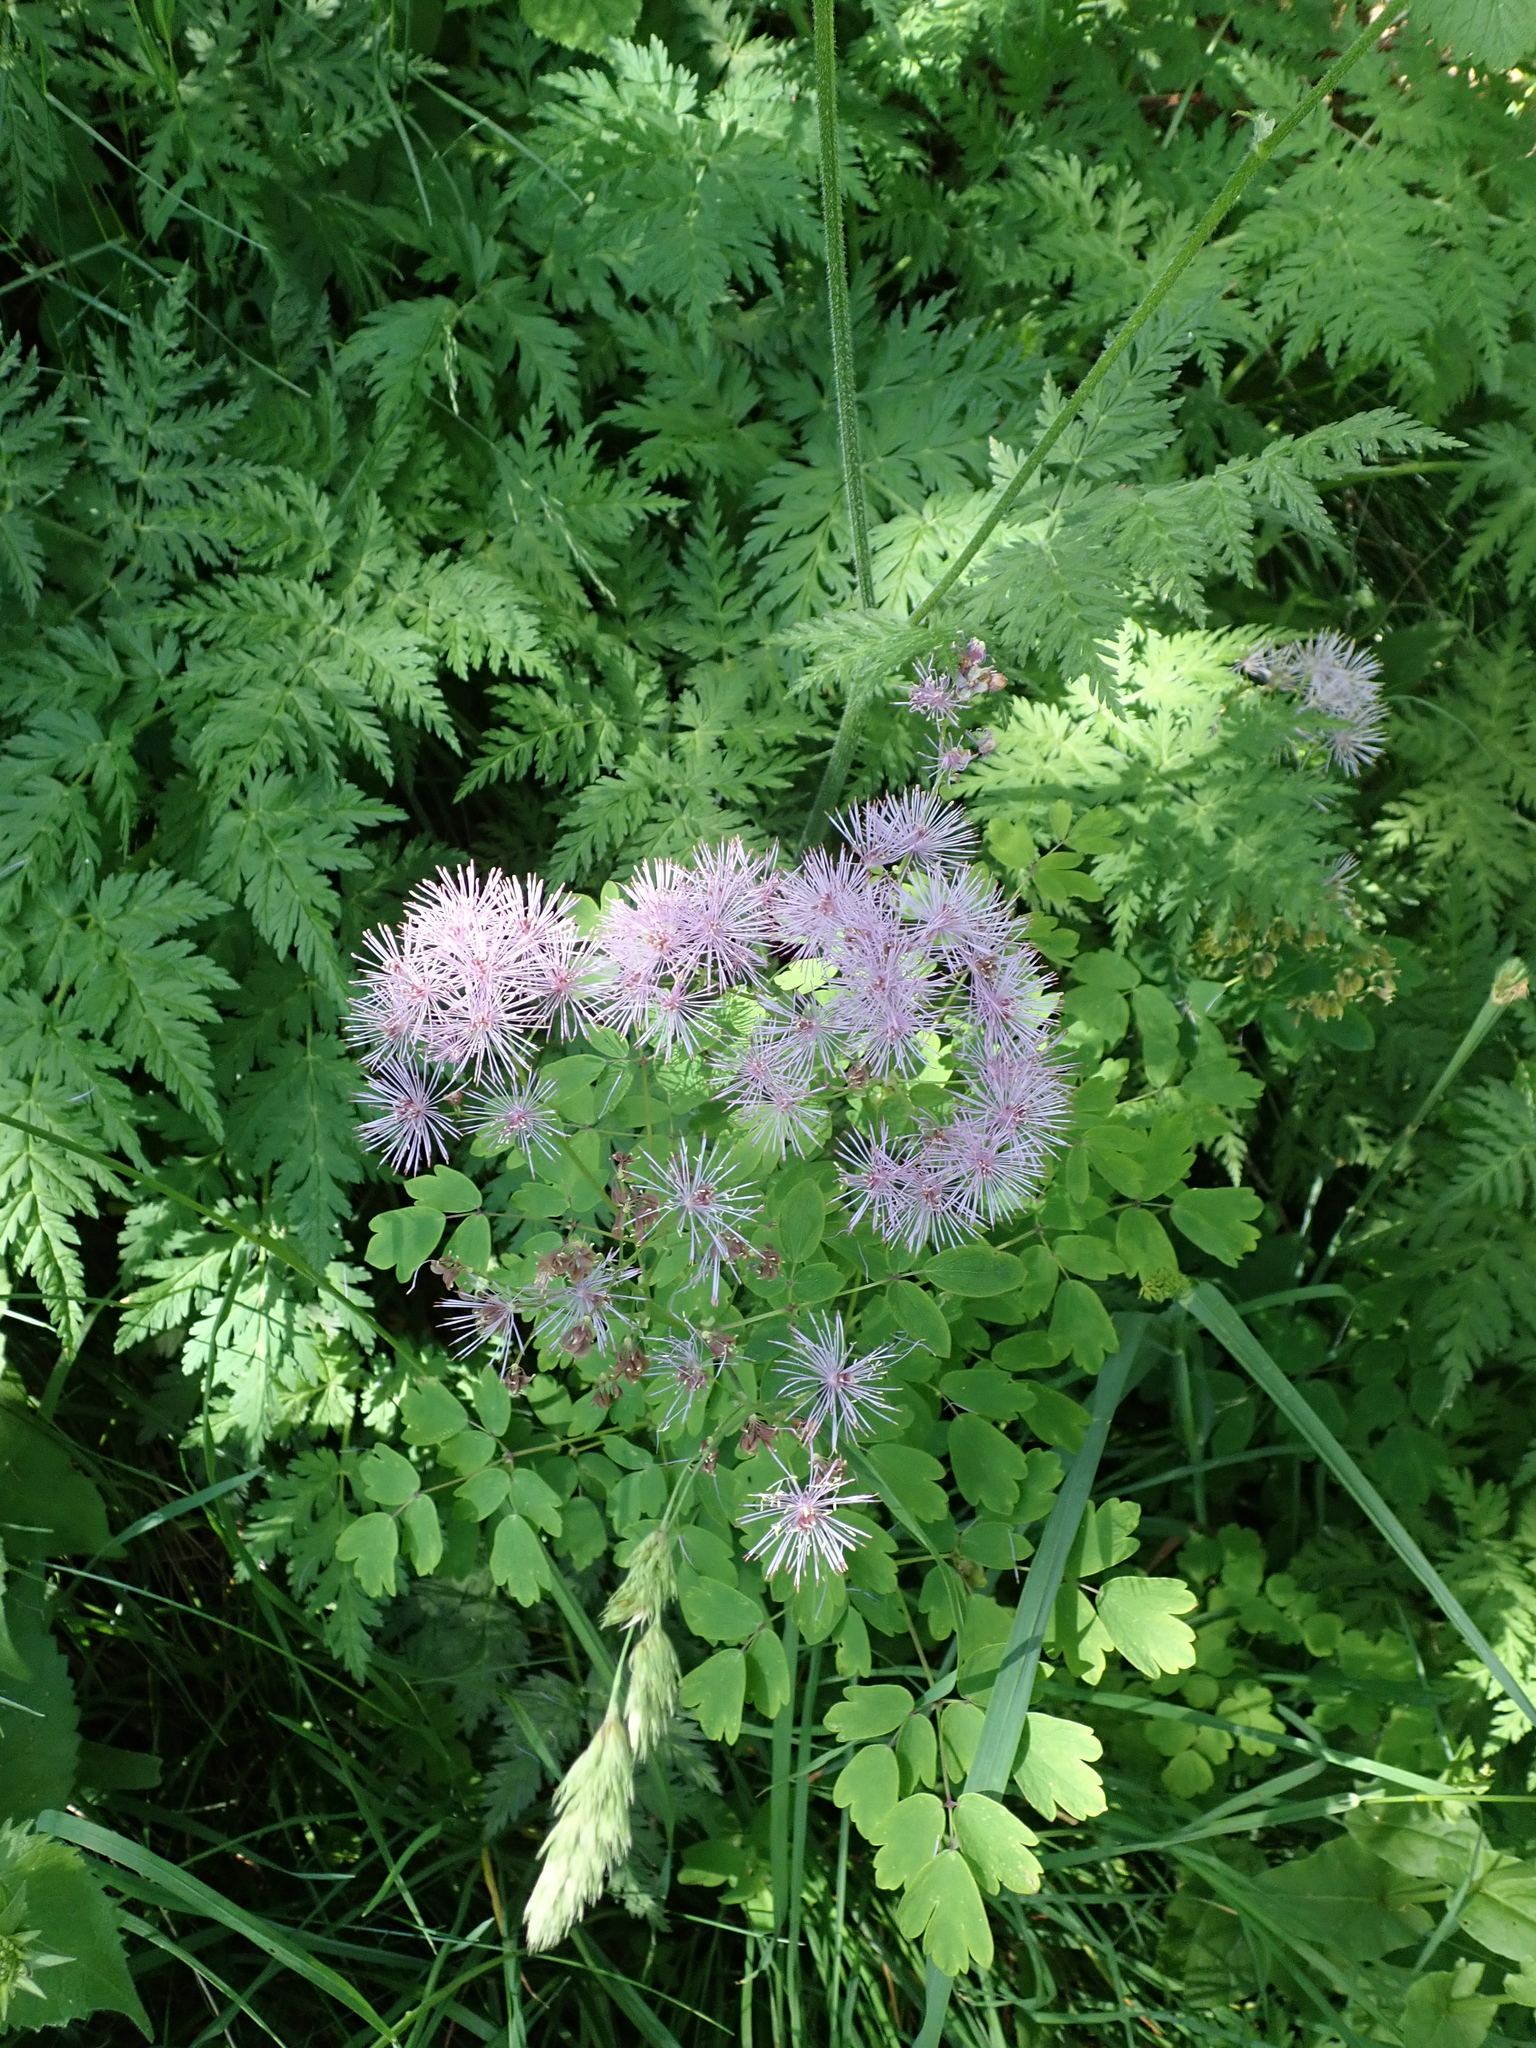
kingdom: Plantae
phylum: Tracheophyta
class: Magnoliopsida
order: Ranunculales
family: Ranunculaceae
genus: Thalictrum
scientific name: Thalictrum aquilegiifolium
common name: French meadow-rue
